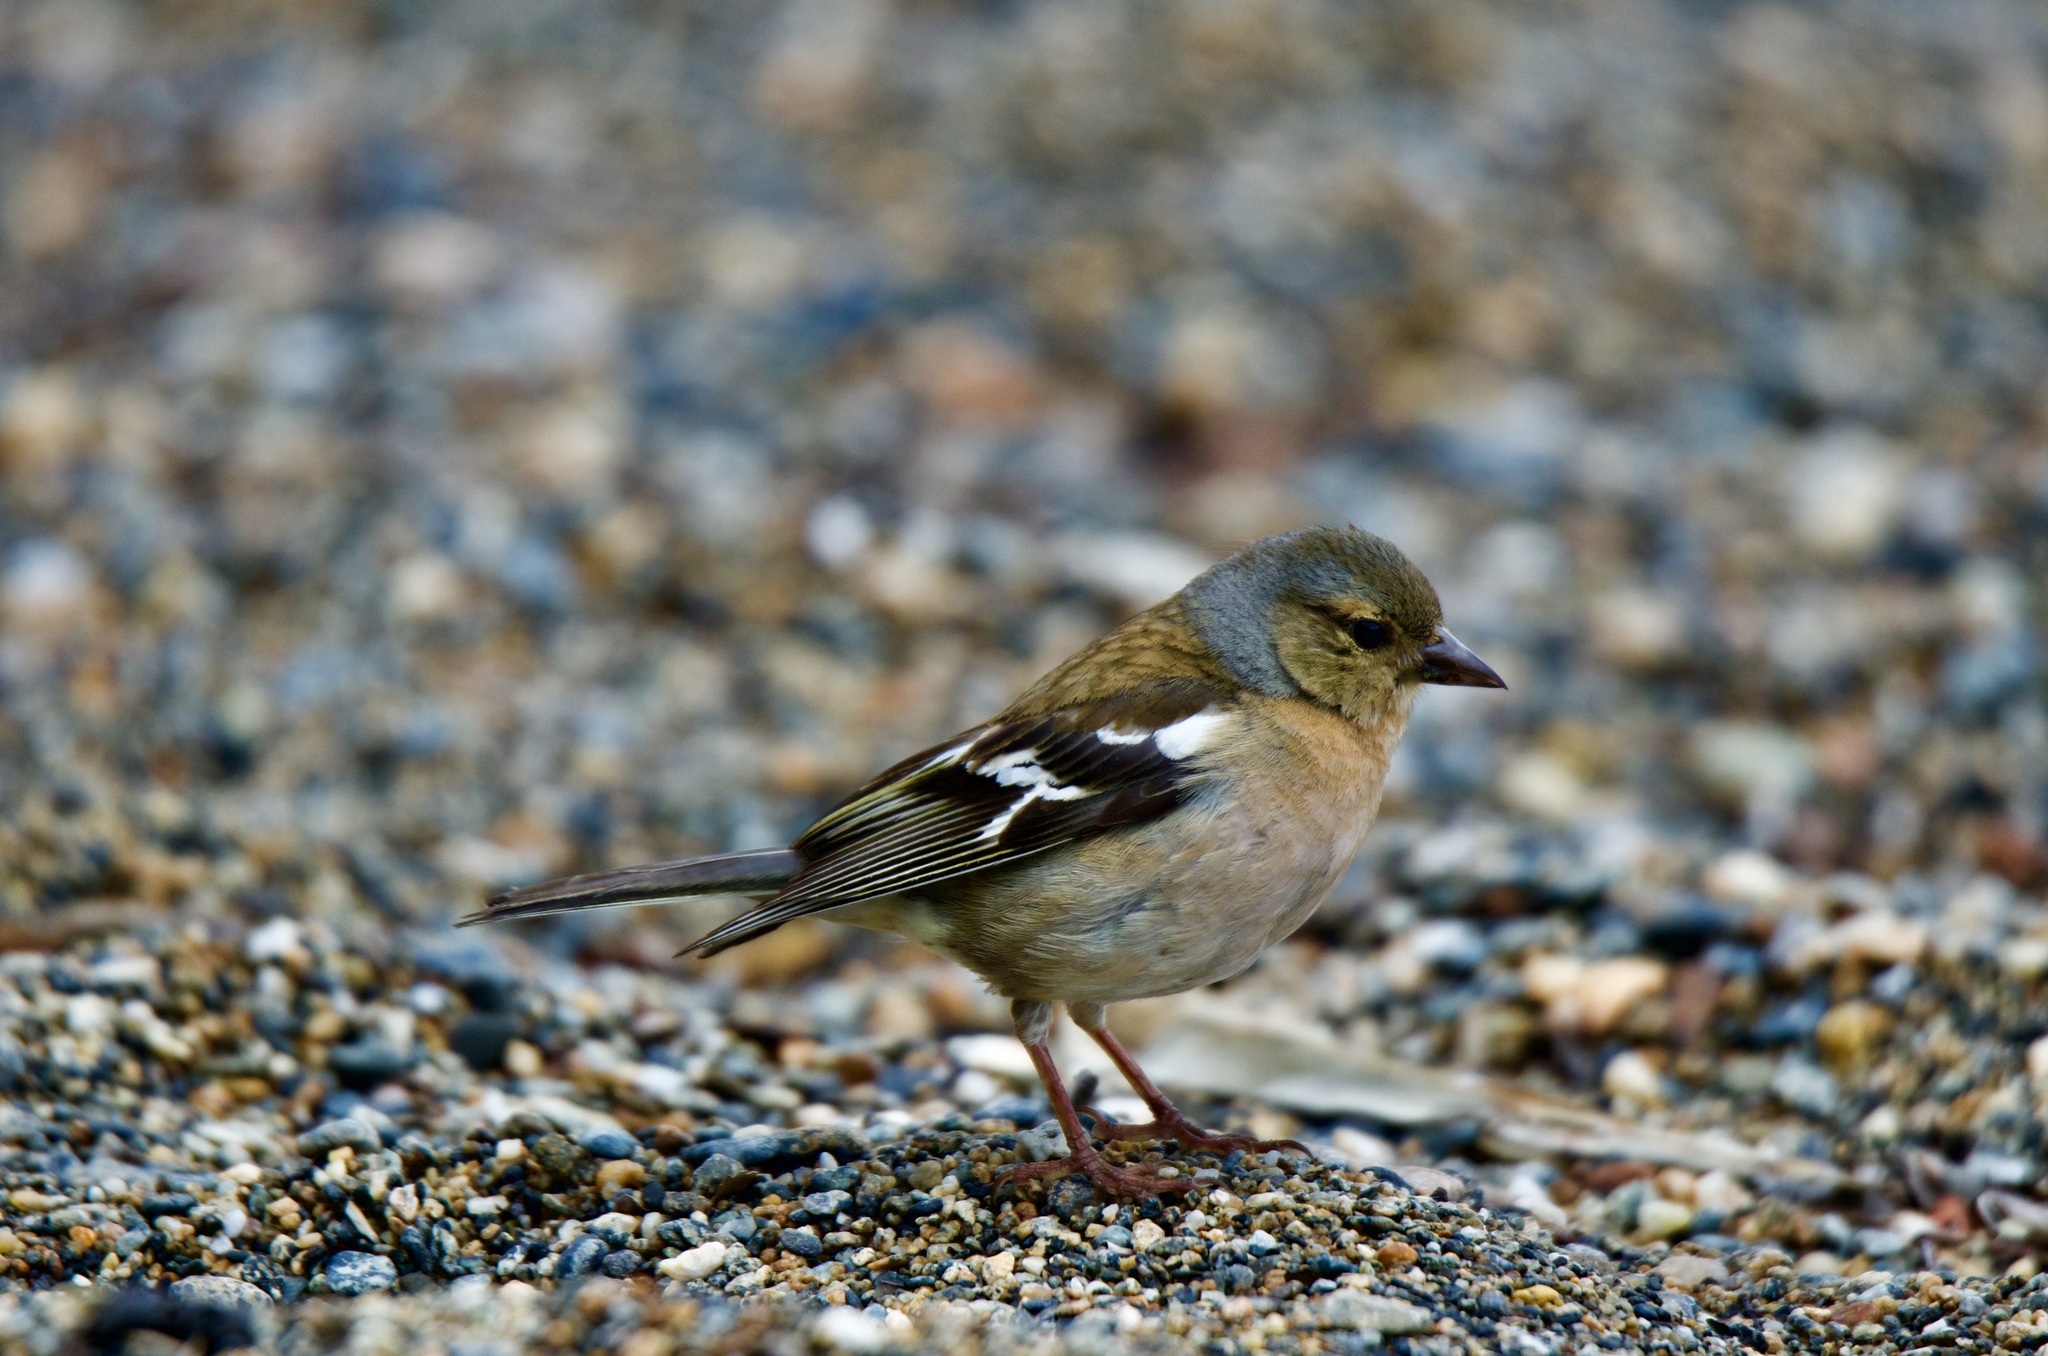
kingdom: Animalia
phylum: Chordata
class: Aves
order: Passeriformes
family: Fringillidae
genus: Fringilla
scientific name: Fringilla coelebs
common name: Common chaffinch
